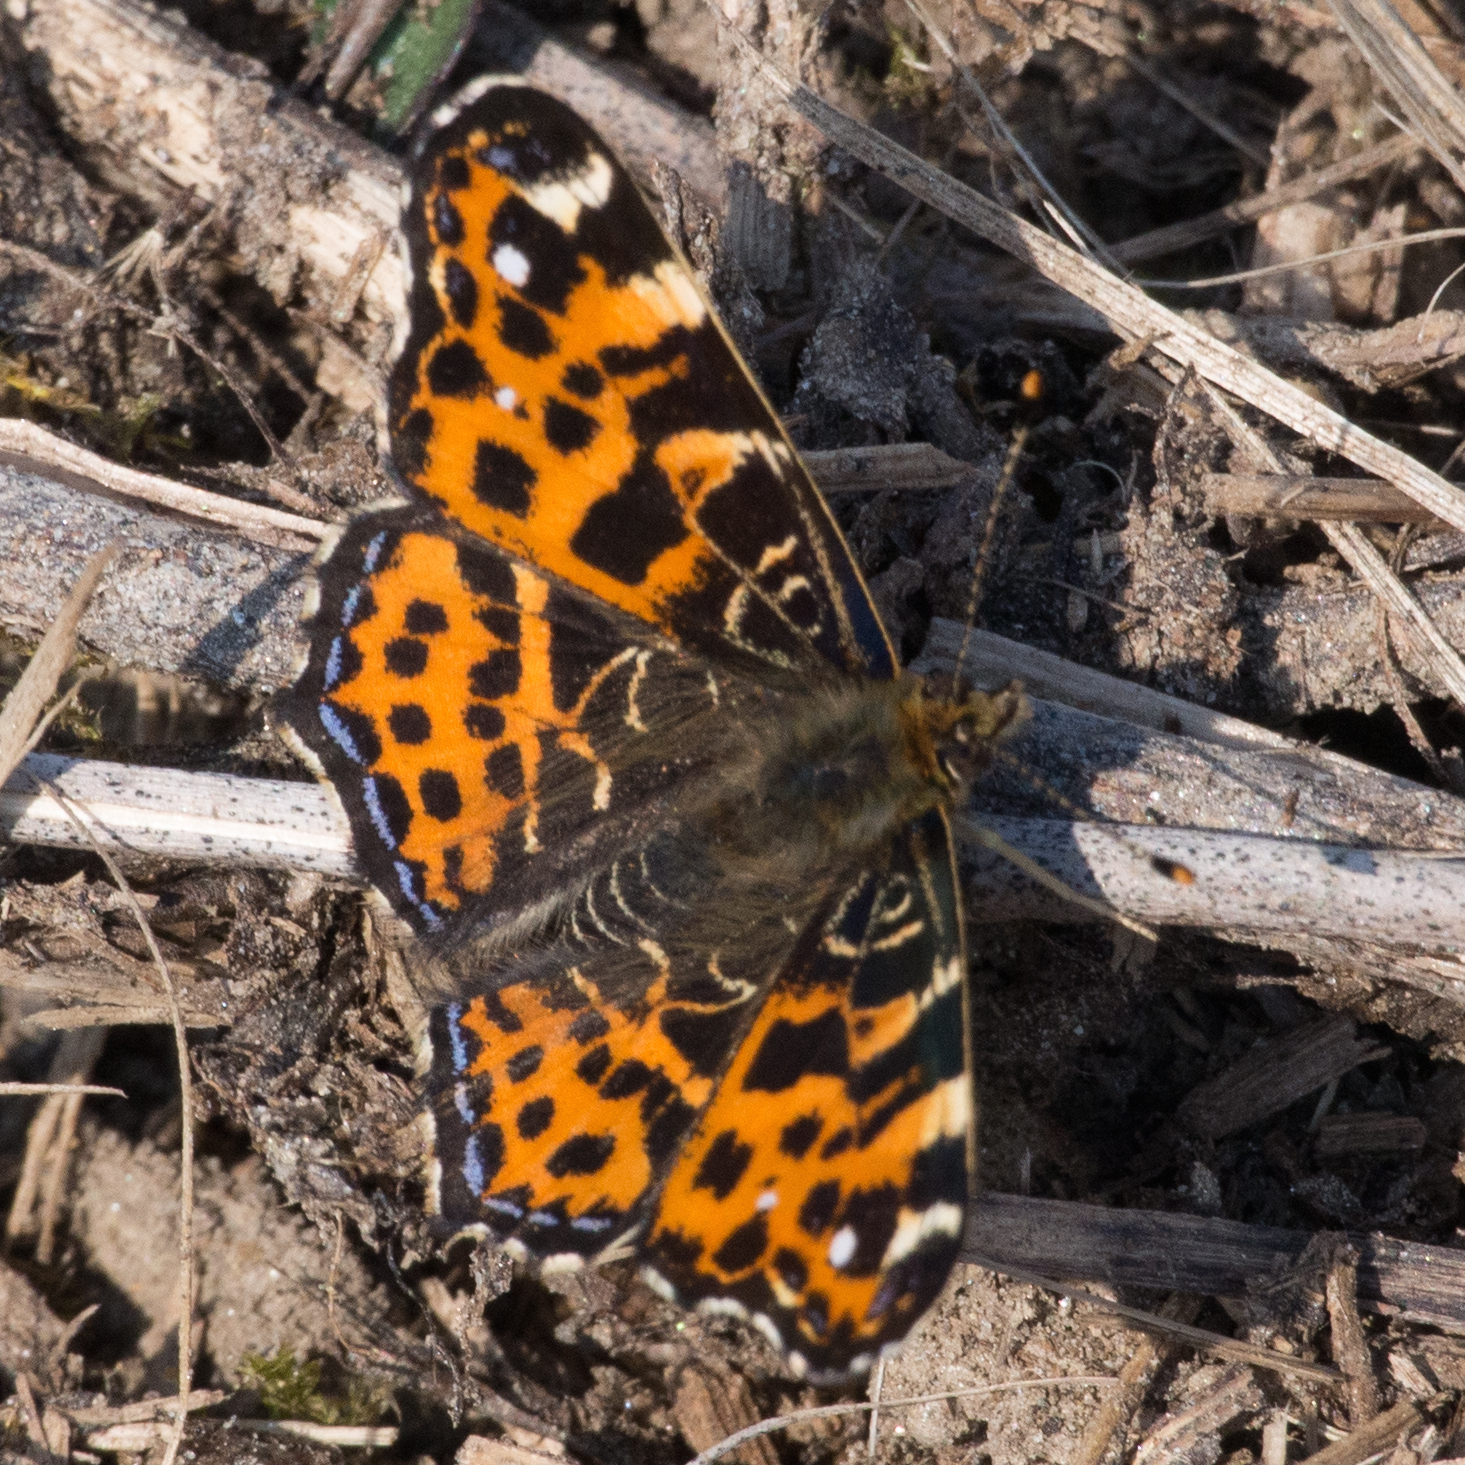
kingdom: Animalia
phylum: Arthropoda
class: Insecta
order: Lepidoptera
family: Nymphalidae
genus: Araschnia
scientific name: Araschnia levana
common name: Map butterfly
